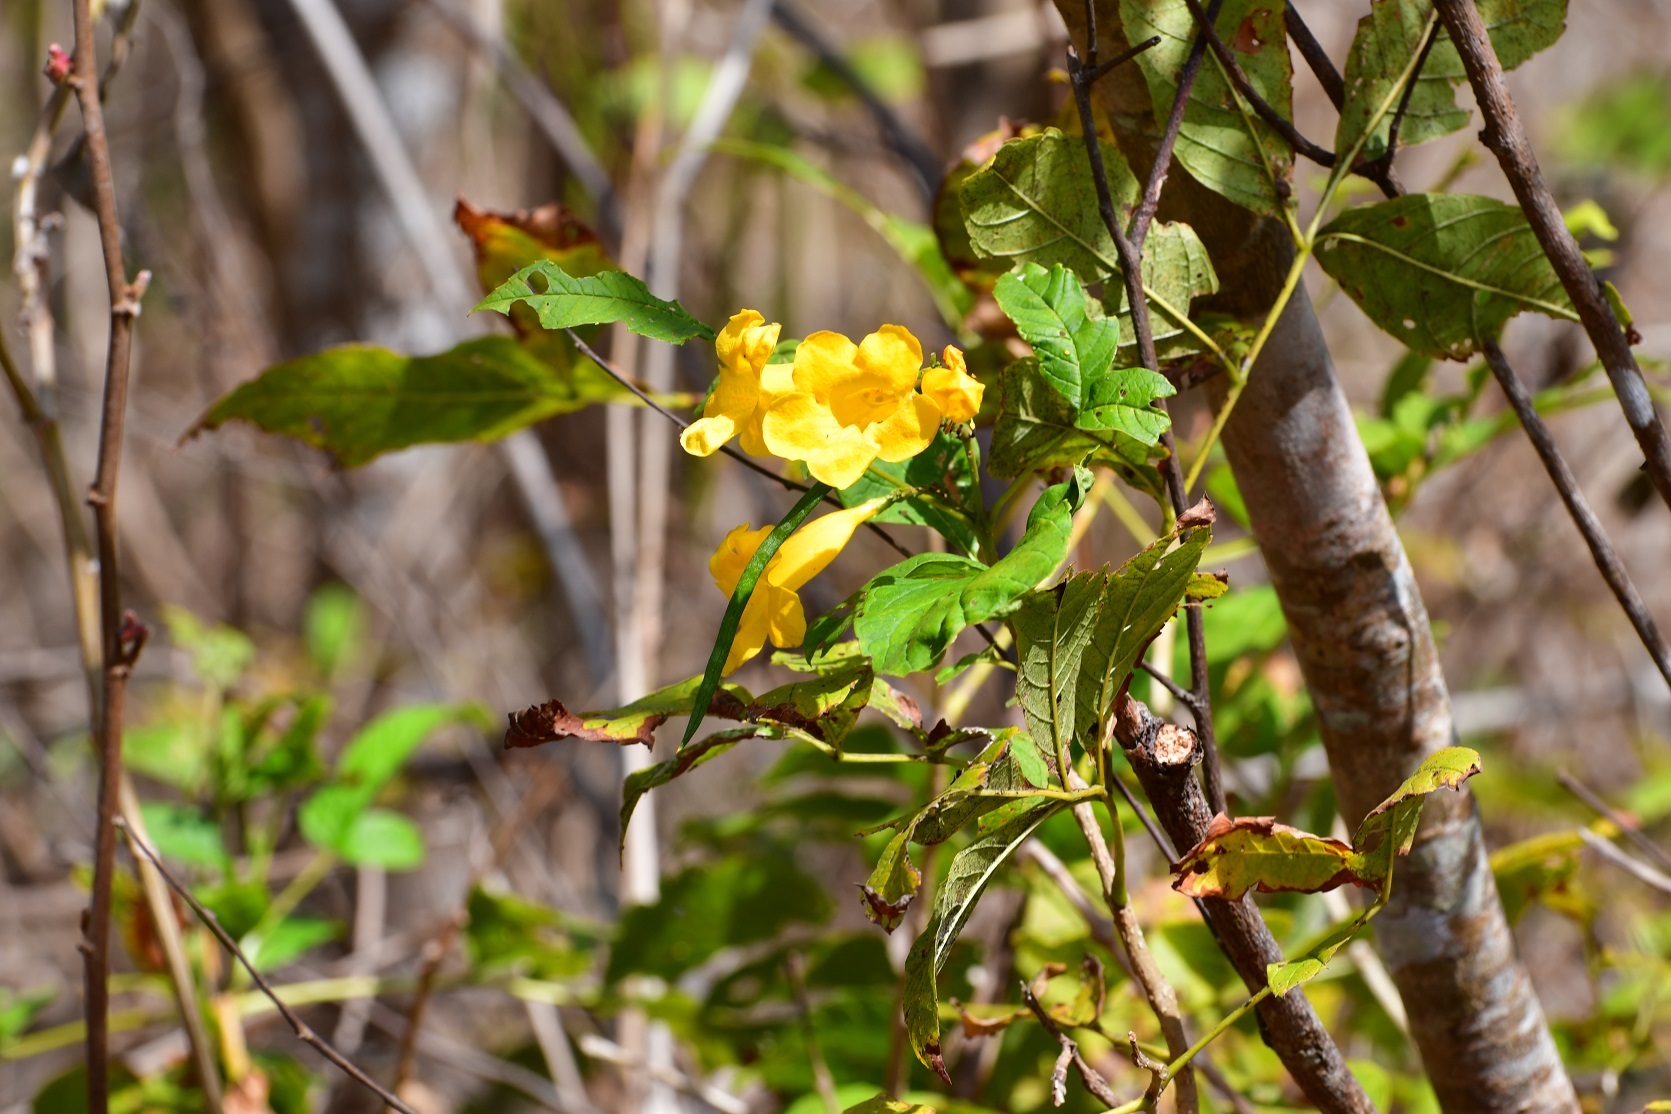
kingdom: Plantae
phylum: Tracheophyta
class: Magnoliopsida
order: Lamiales
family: Bignoniaceae
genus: Tecoma
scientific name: Tecoma stans
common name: Yellow trumpetbush
